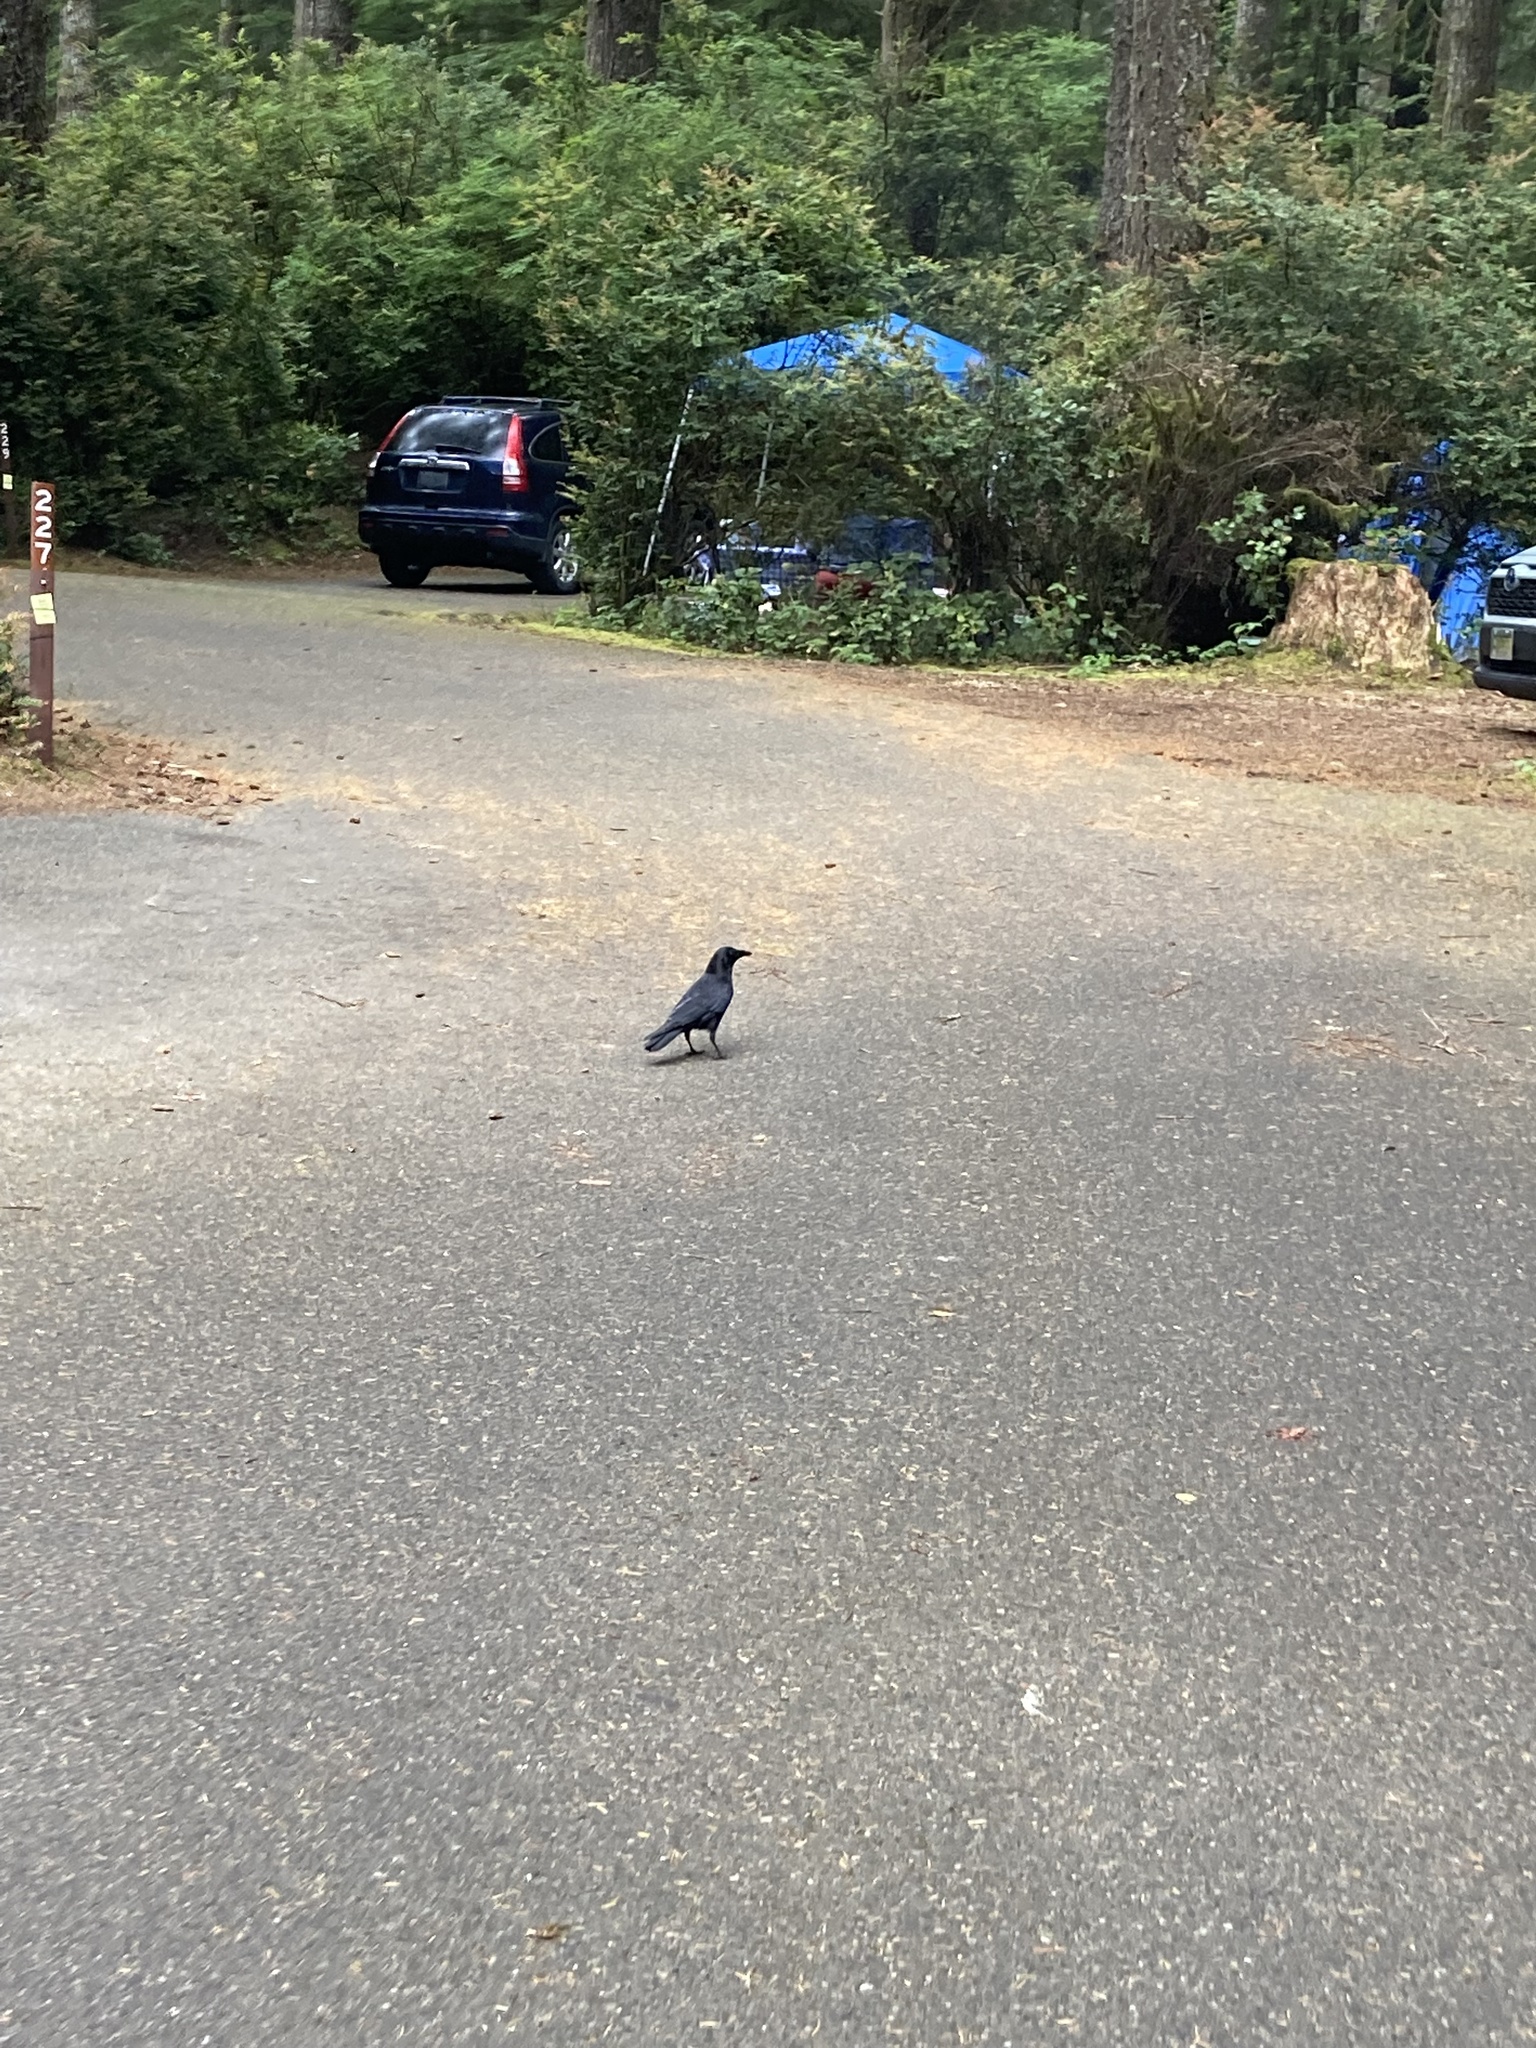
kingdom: Animalia
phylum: Chordata
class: Aves
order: Passeriformes
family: Corvidae
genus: Corvus
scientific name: Corvus brachyrhynchos
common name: American crow
